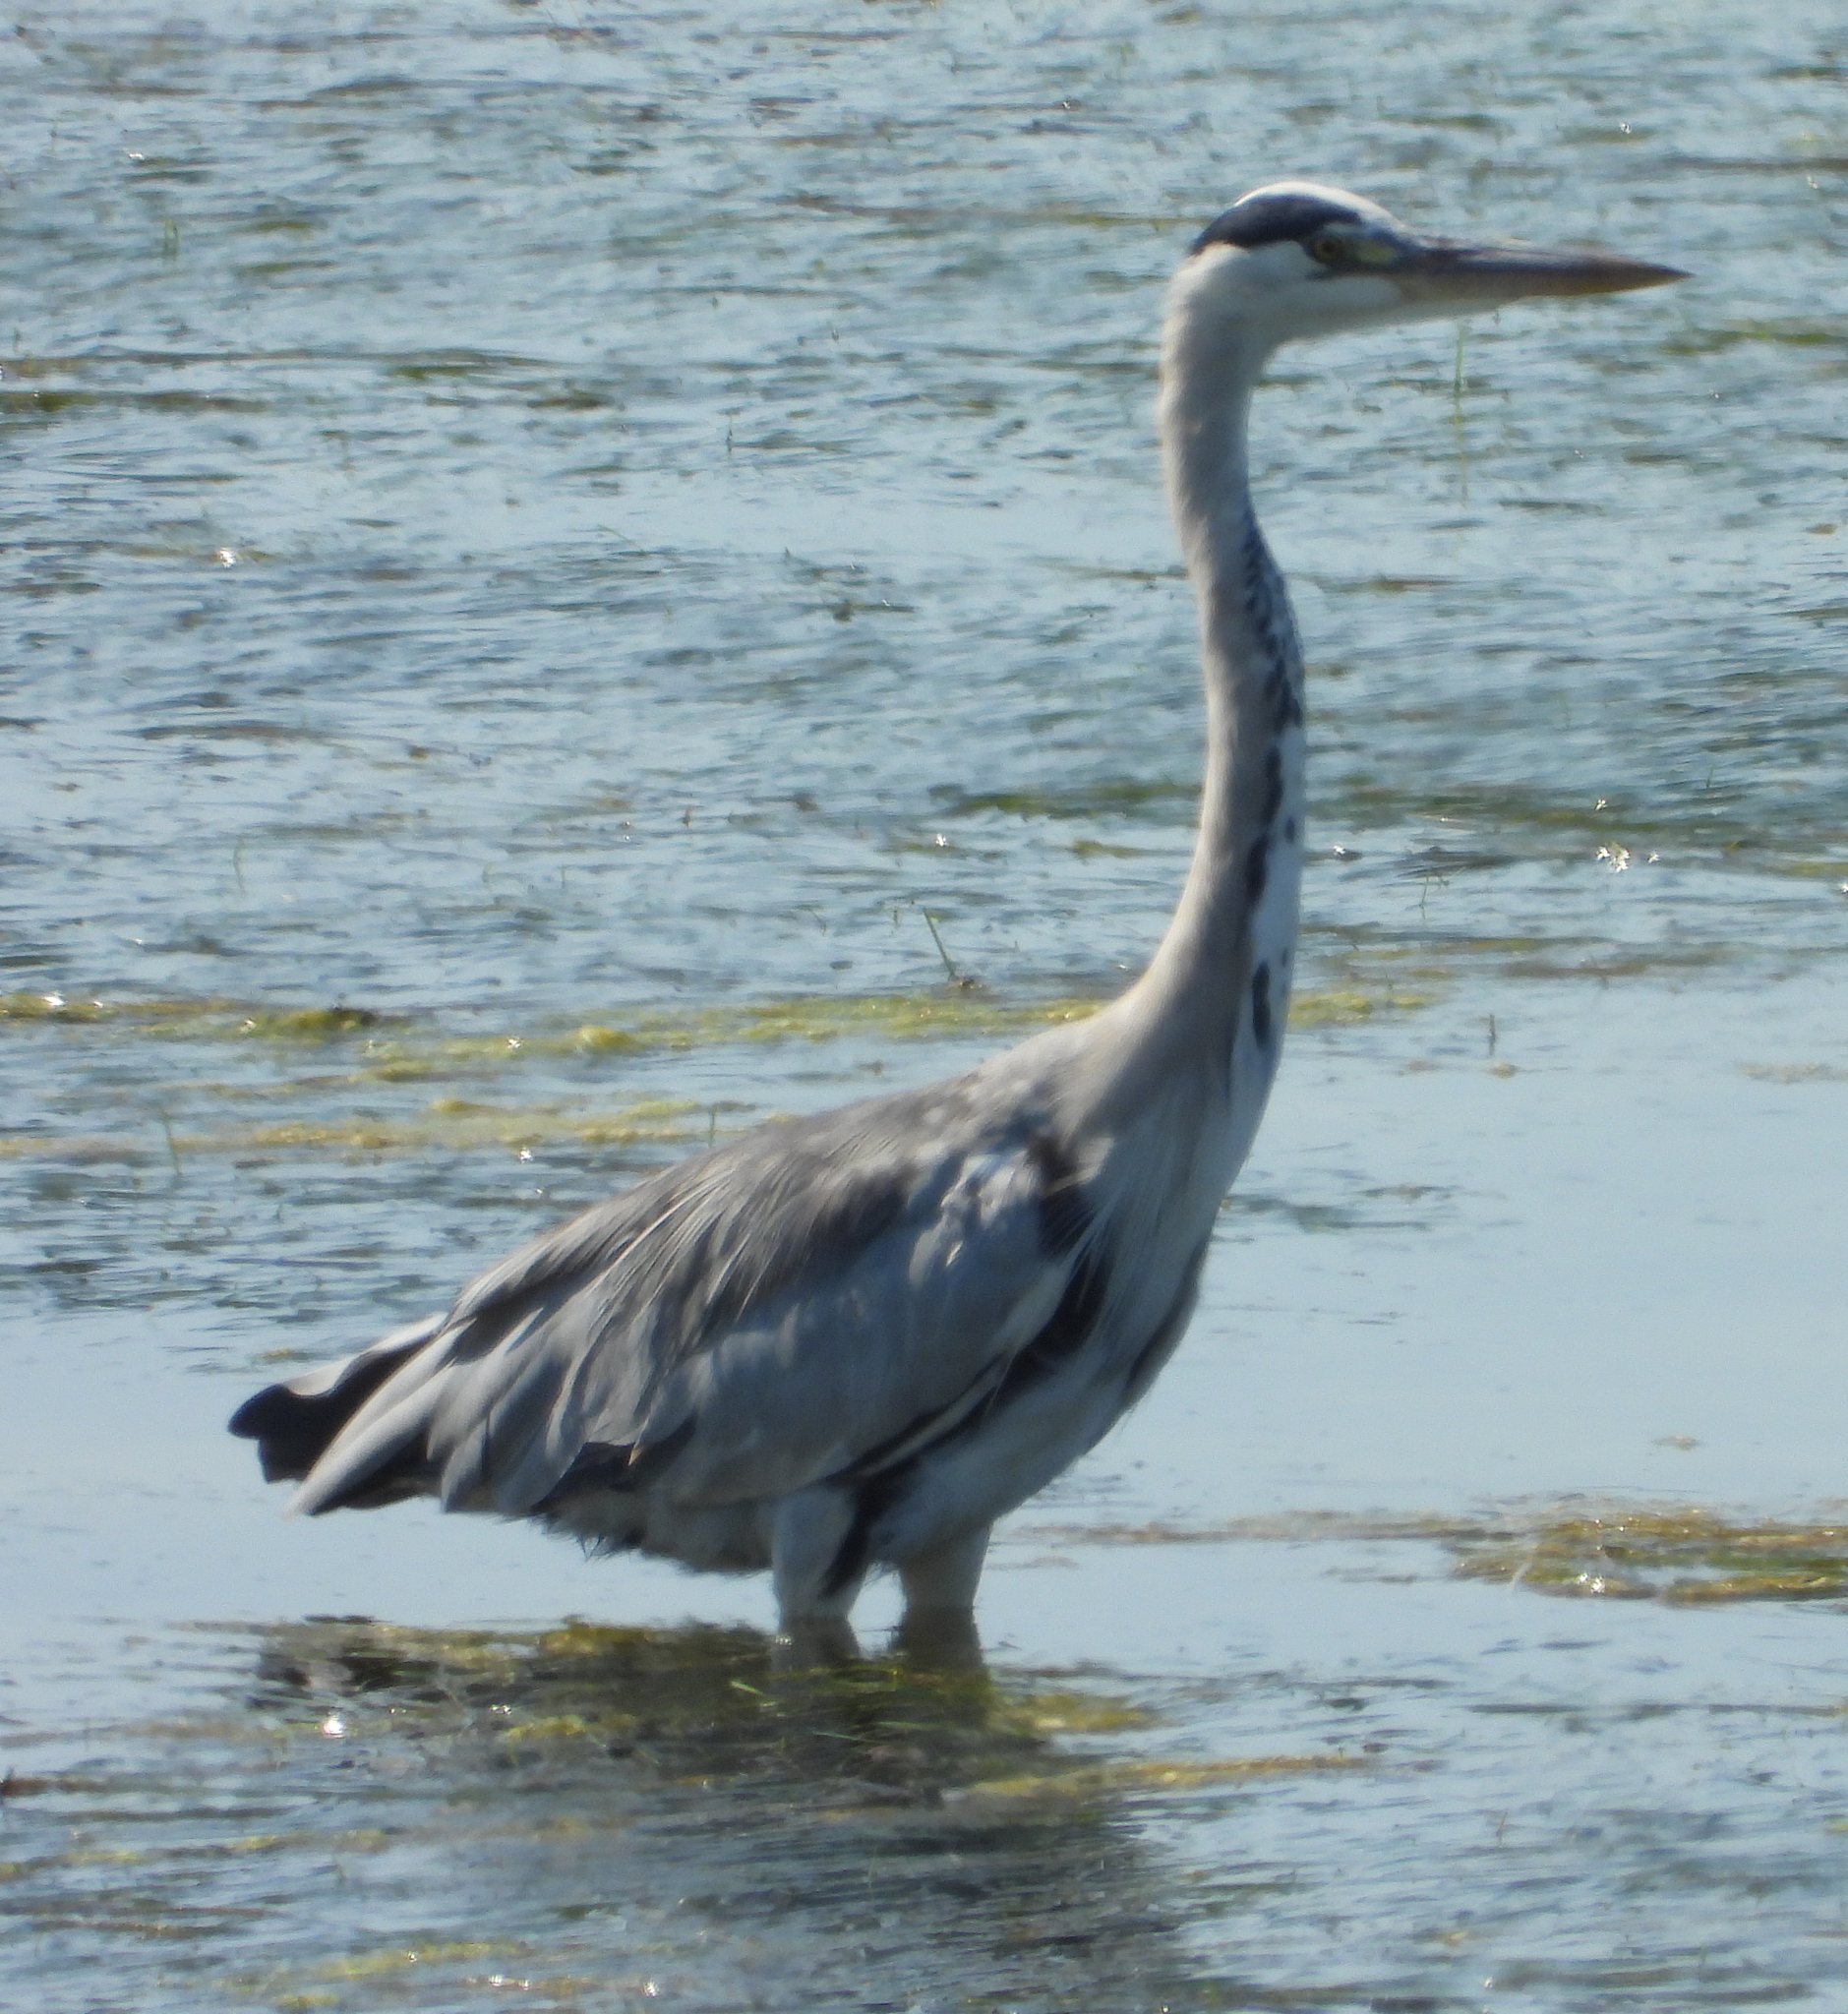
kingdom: Animalia
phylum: Chordata
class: Aves
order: Pelecaniformes
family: Ardeidae
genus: Ardea
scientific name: Ardea cinerea
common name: Grey heron
